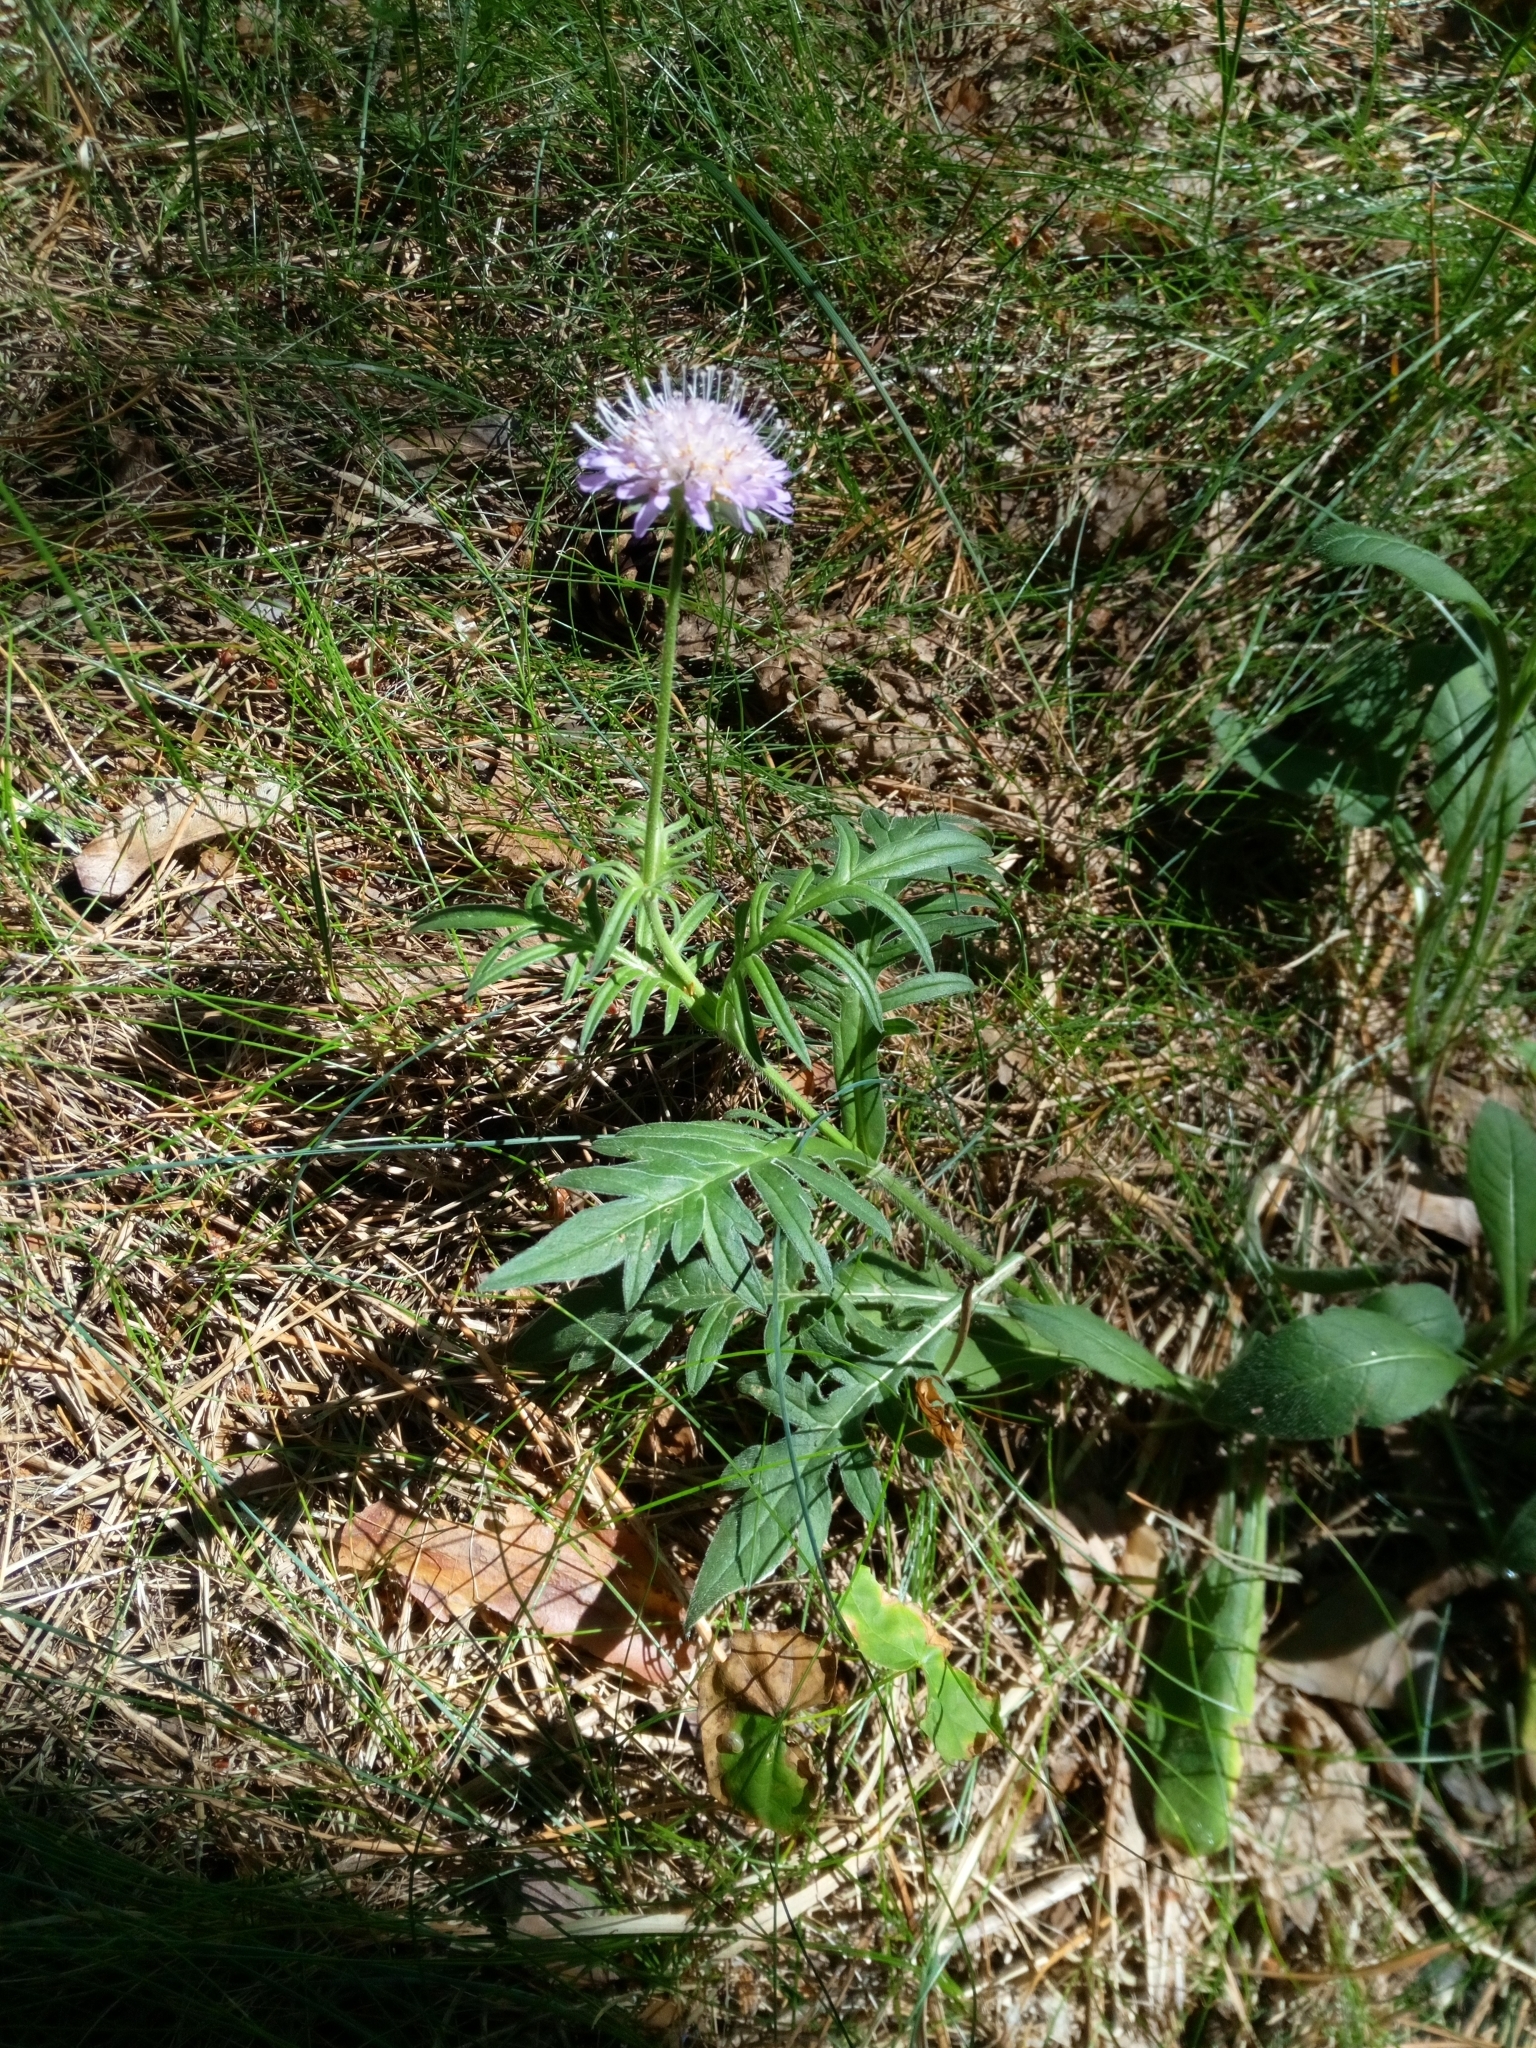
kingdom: Plantae
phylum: Tracheophyta
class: Magnoliopsida
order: Dipsacales
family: Caprifoliaceae
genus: Knautia
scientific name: Knautia arvensis
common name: Field scabiosa
